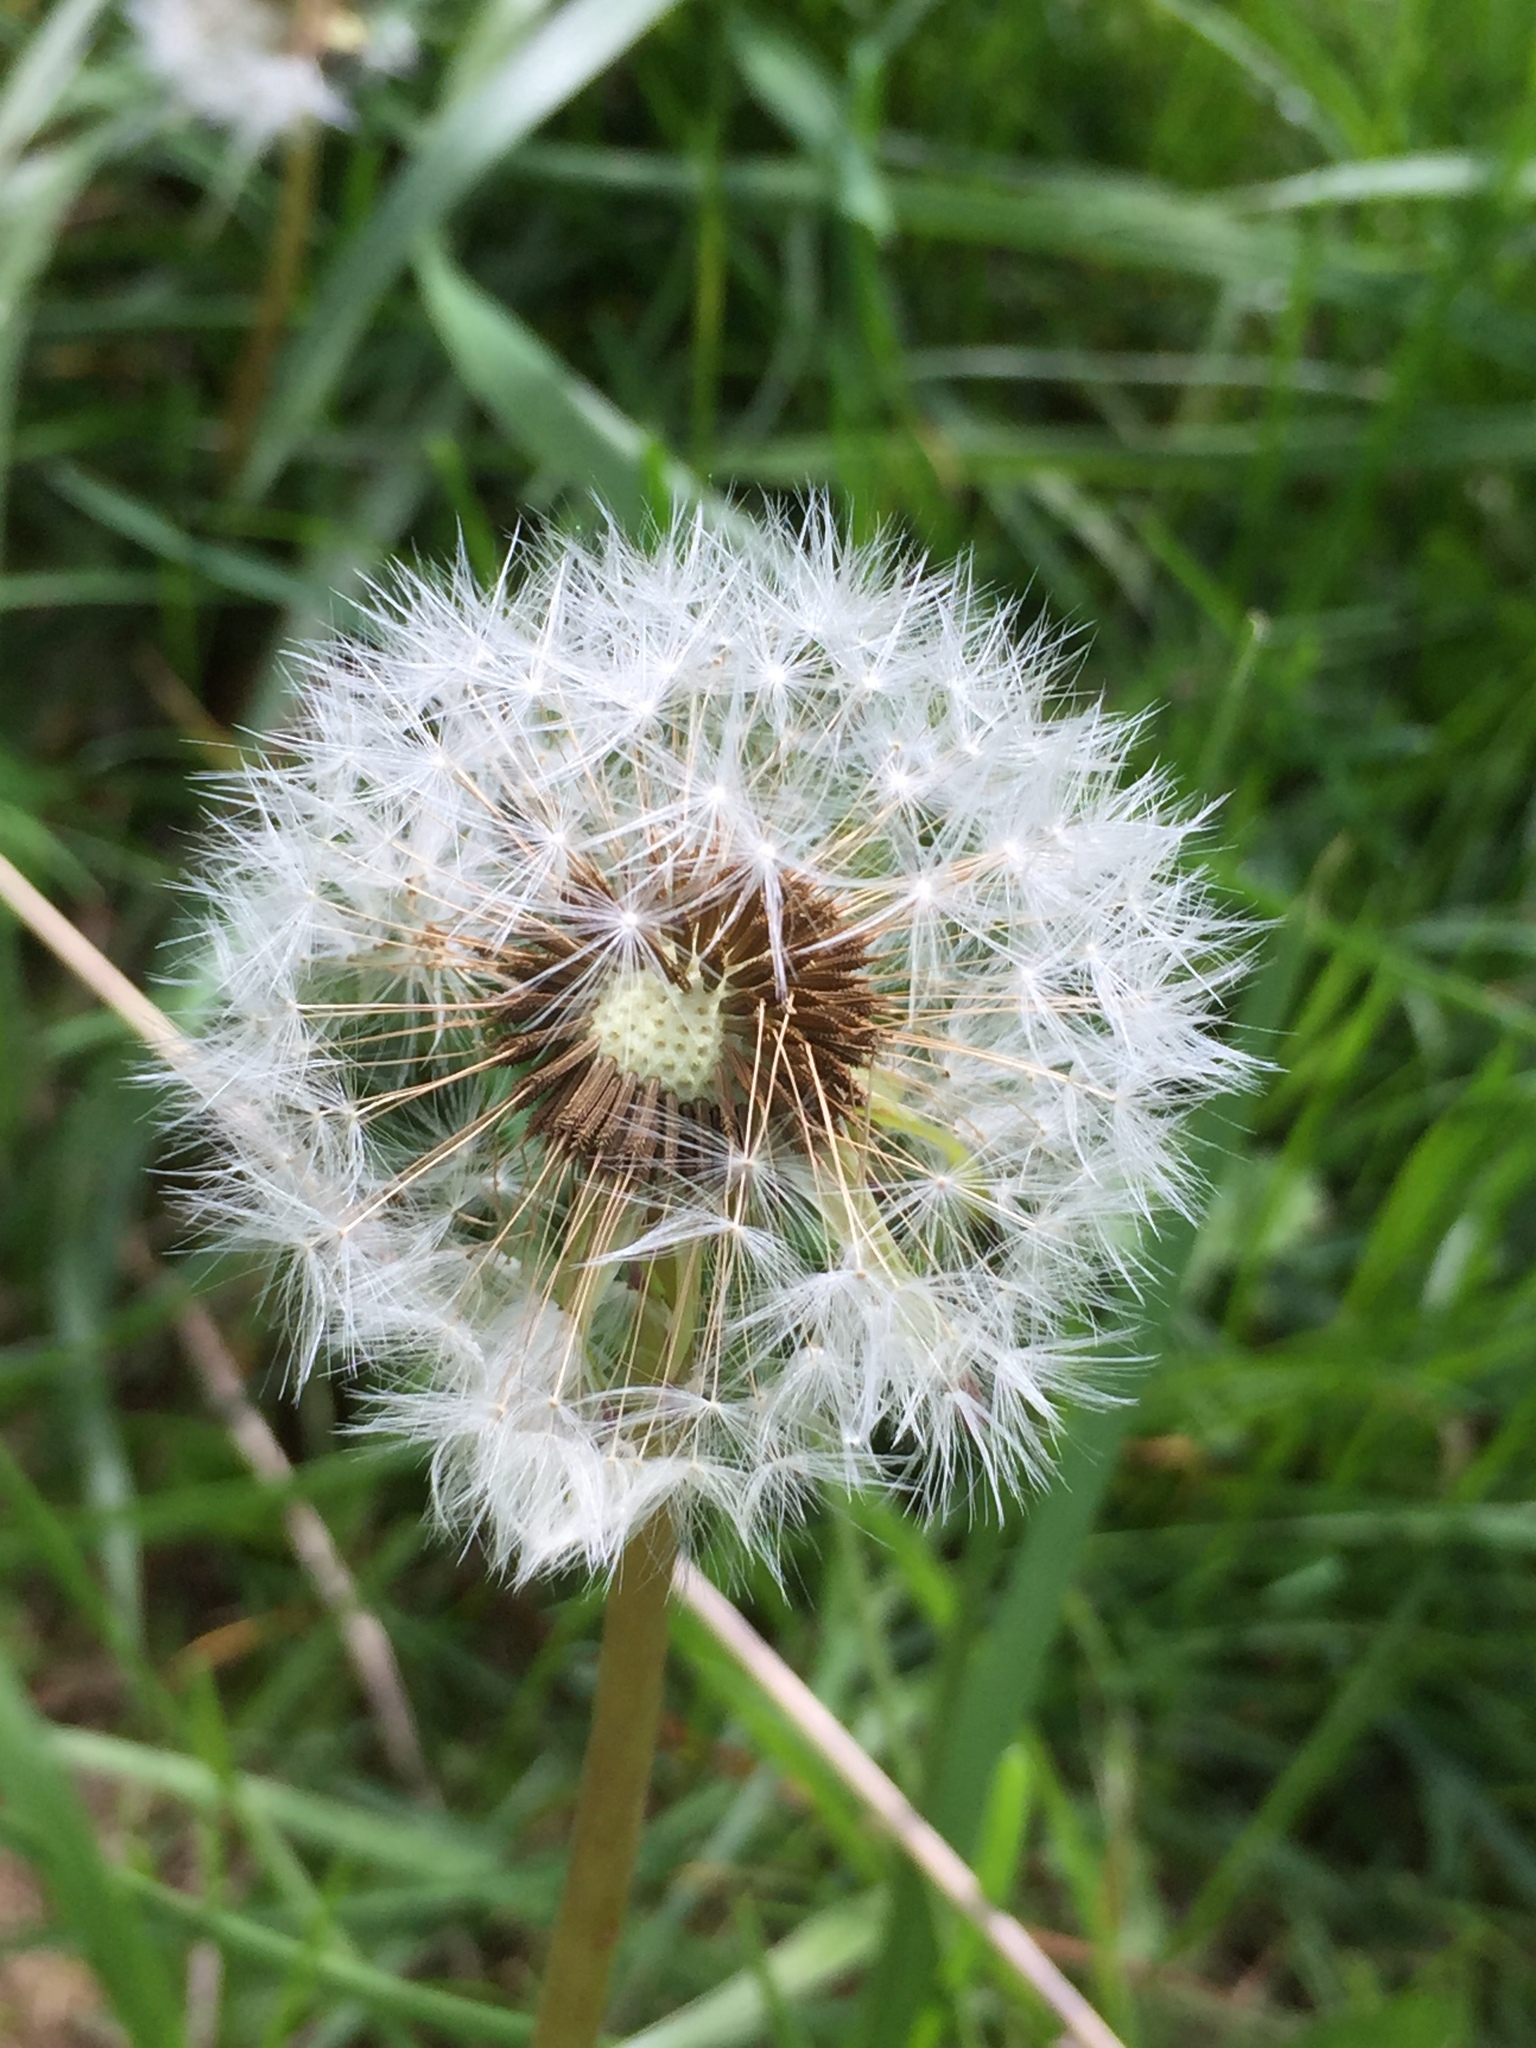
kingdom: Plantae
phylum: Tracheophyta
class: Magnoliopsida
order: Asterales
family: Asteraceae
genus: Taraxacum
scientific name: Taraxacum officinale
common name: Common dandelion
